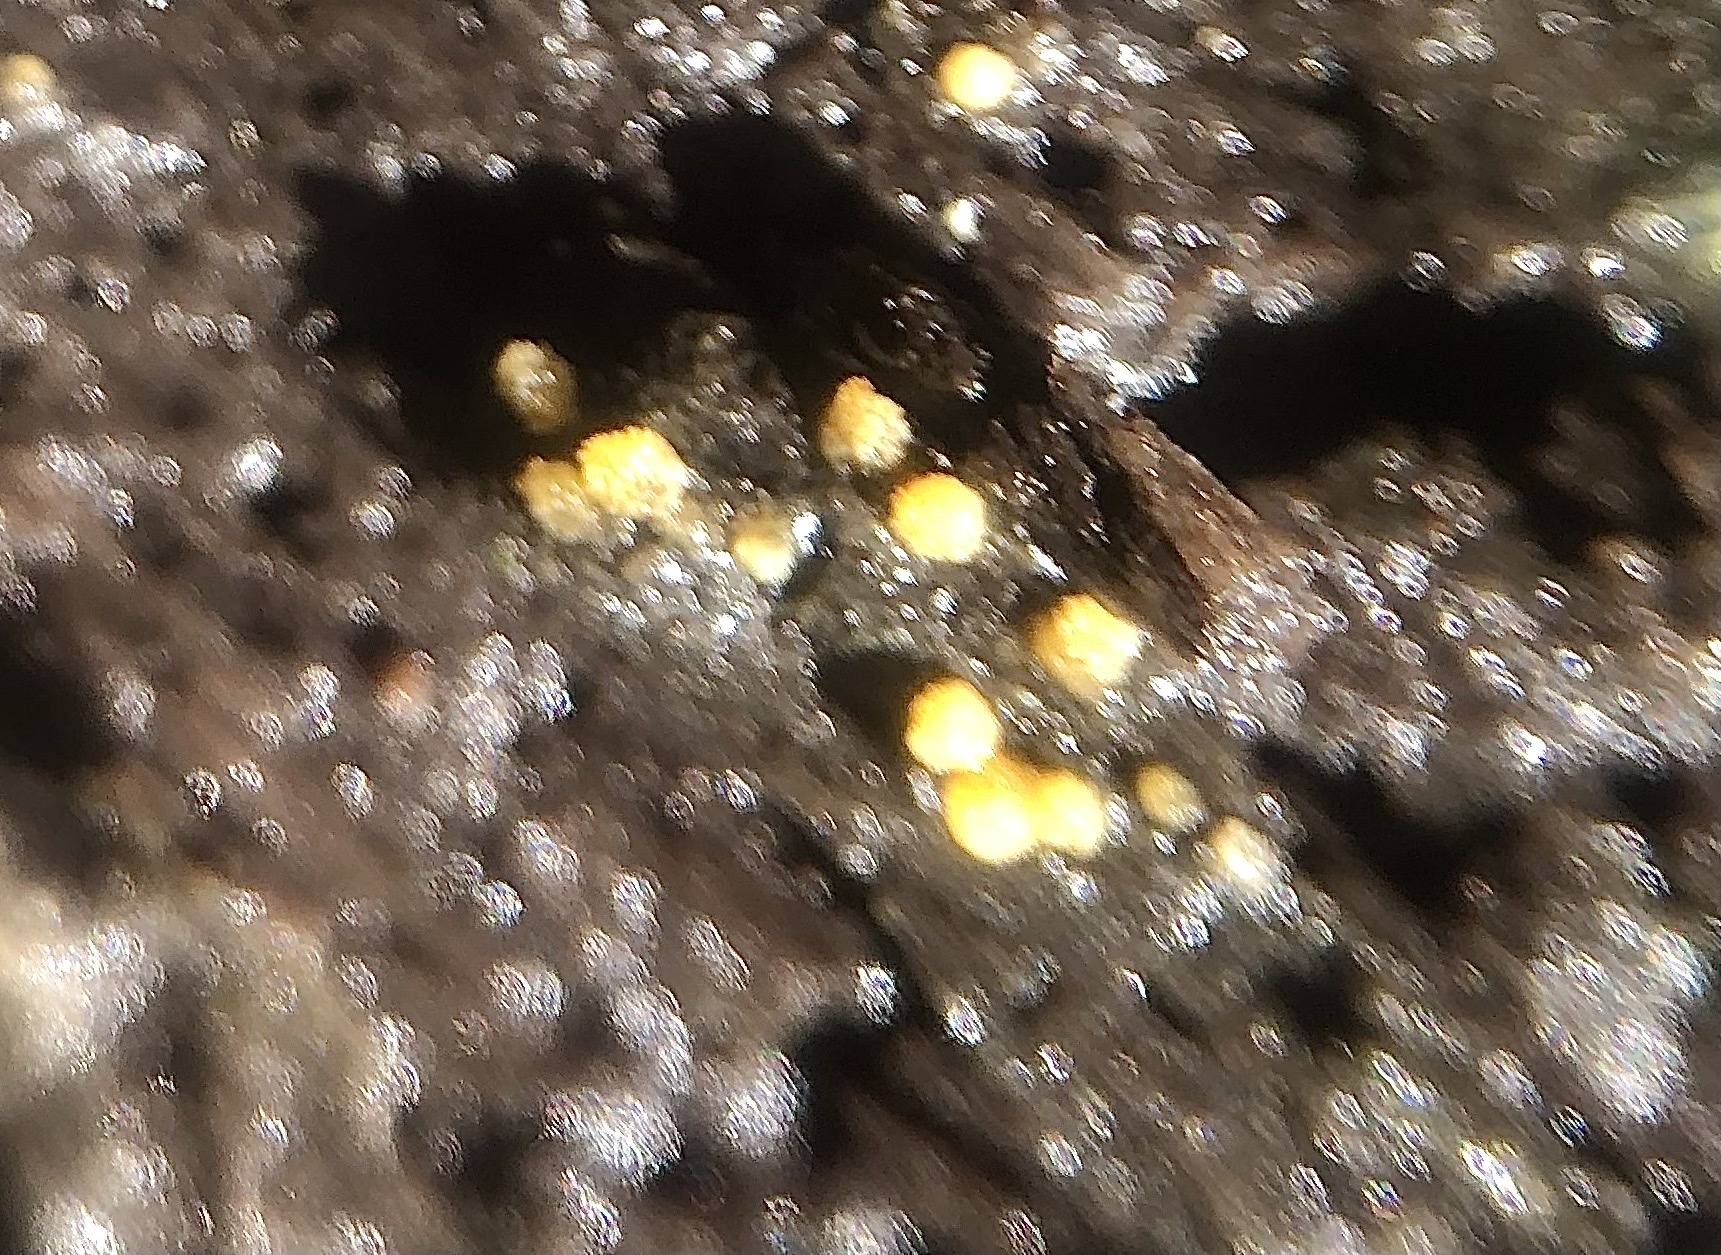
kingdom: Fungi
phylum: Ascomycota
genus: Bactridium
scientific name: Bactridium
